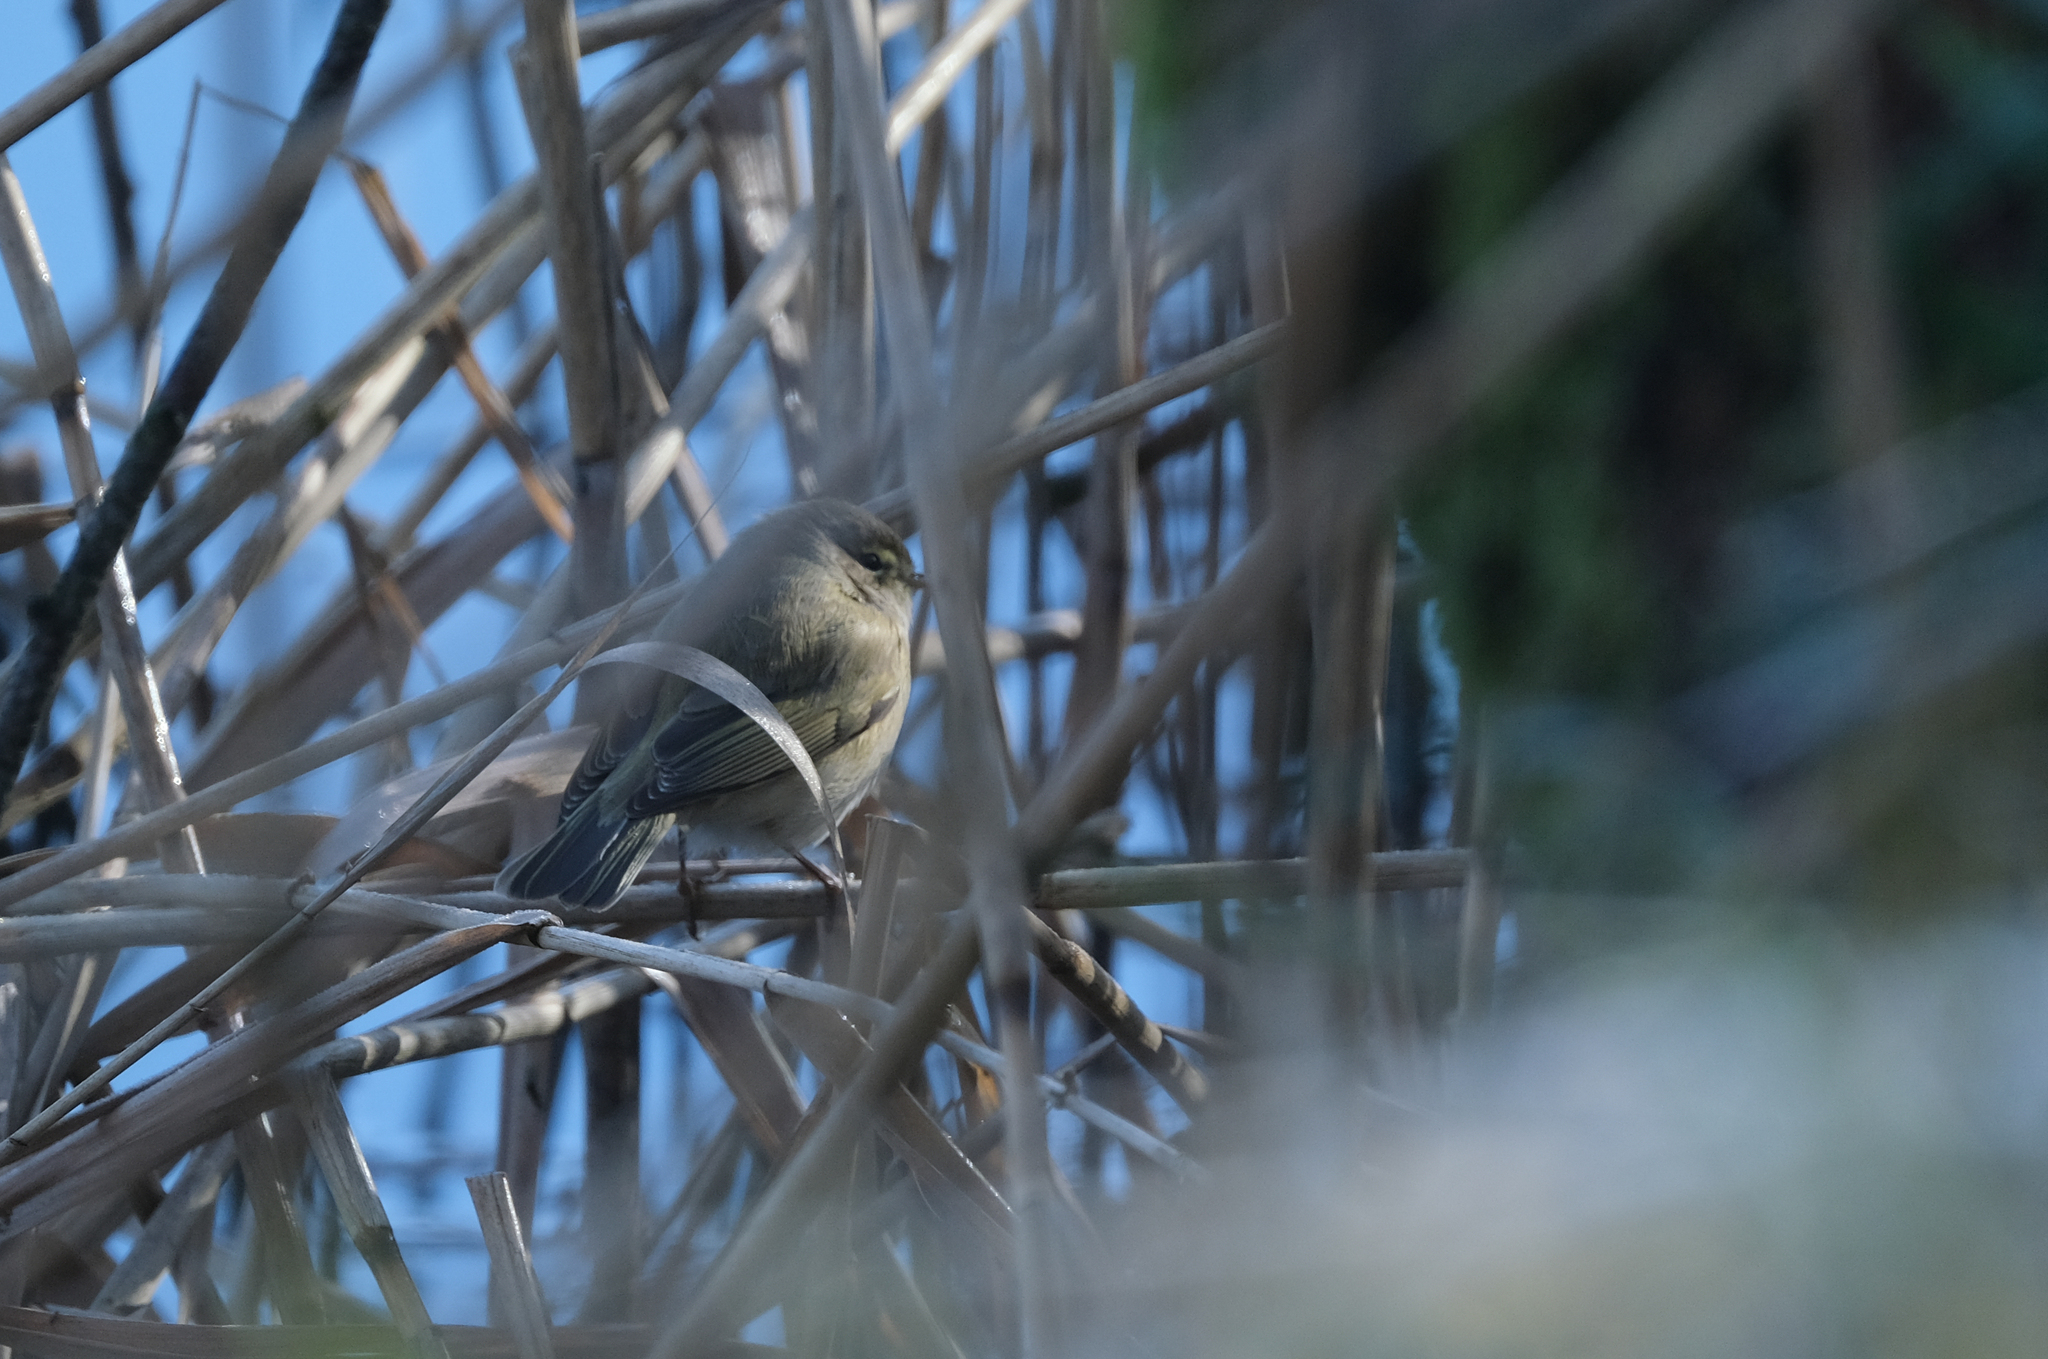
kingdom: Animalia
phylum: Chordata
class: Aves
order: Passeriformes
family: Phylloscopidae
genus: Phylloscopus
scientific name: Phylloscopus collybita
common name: Common chiffchaff
